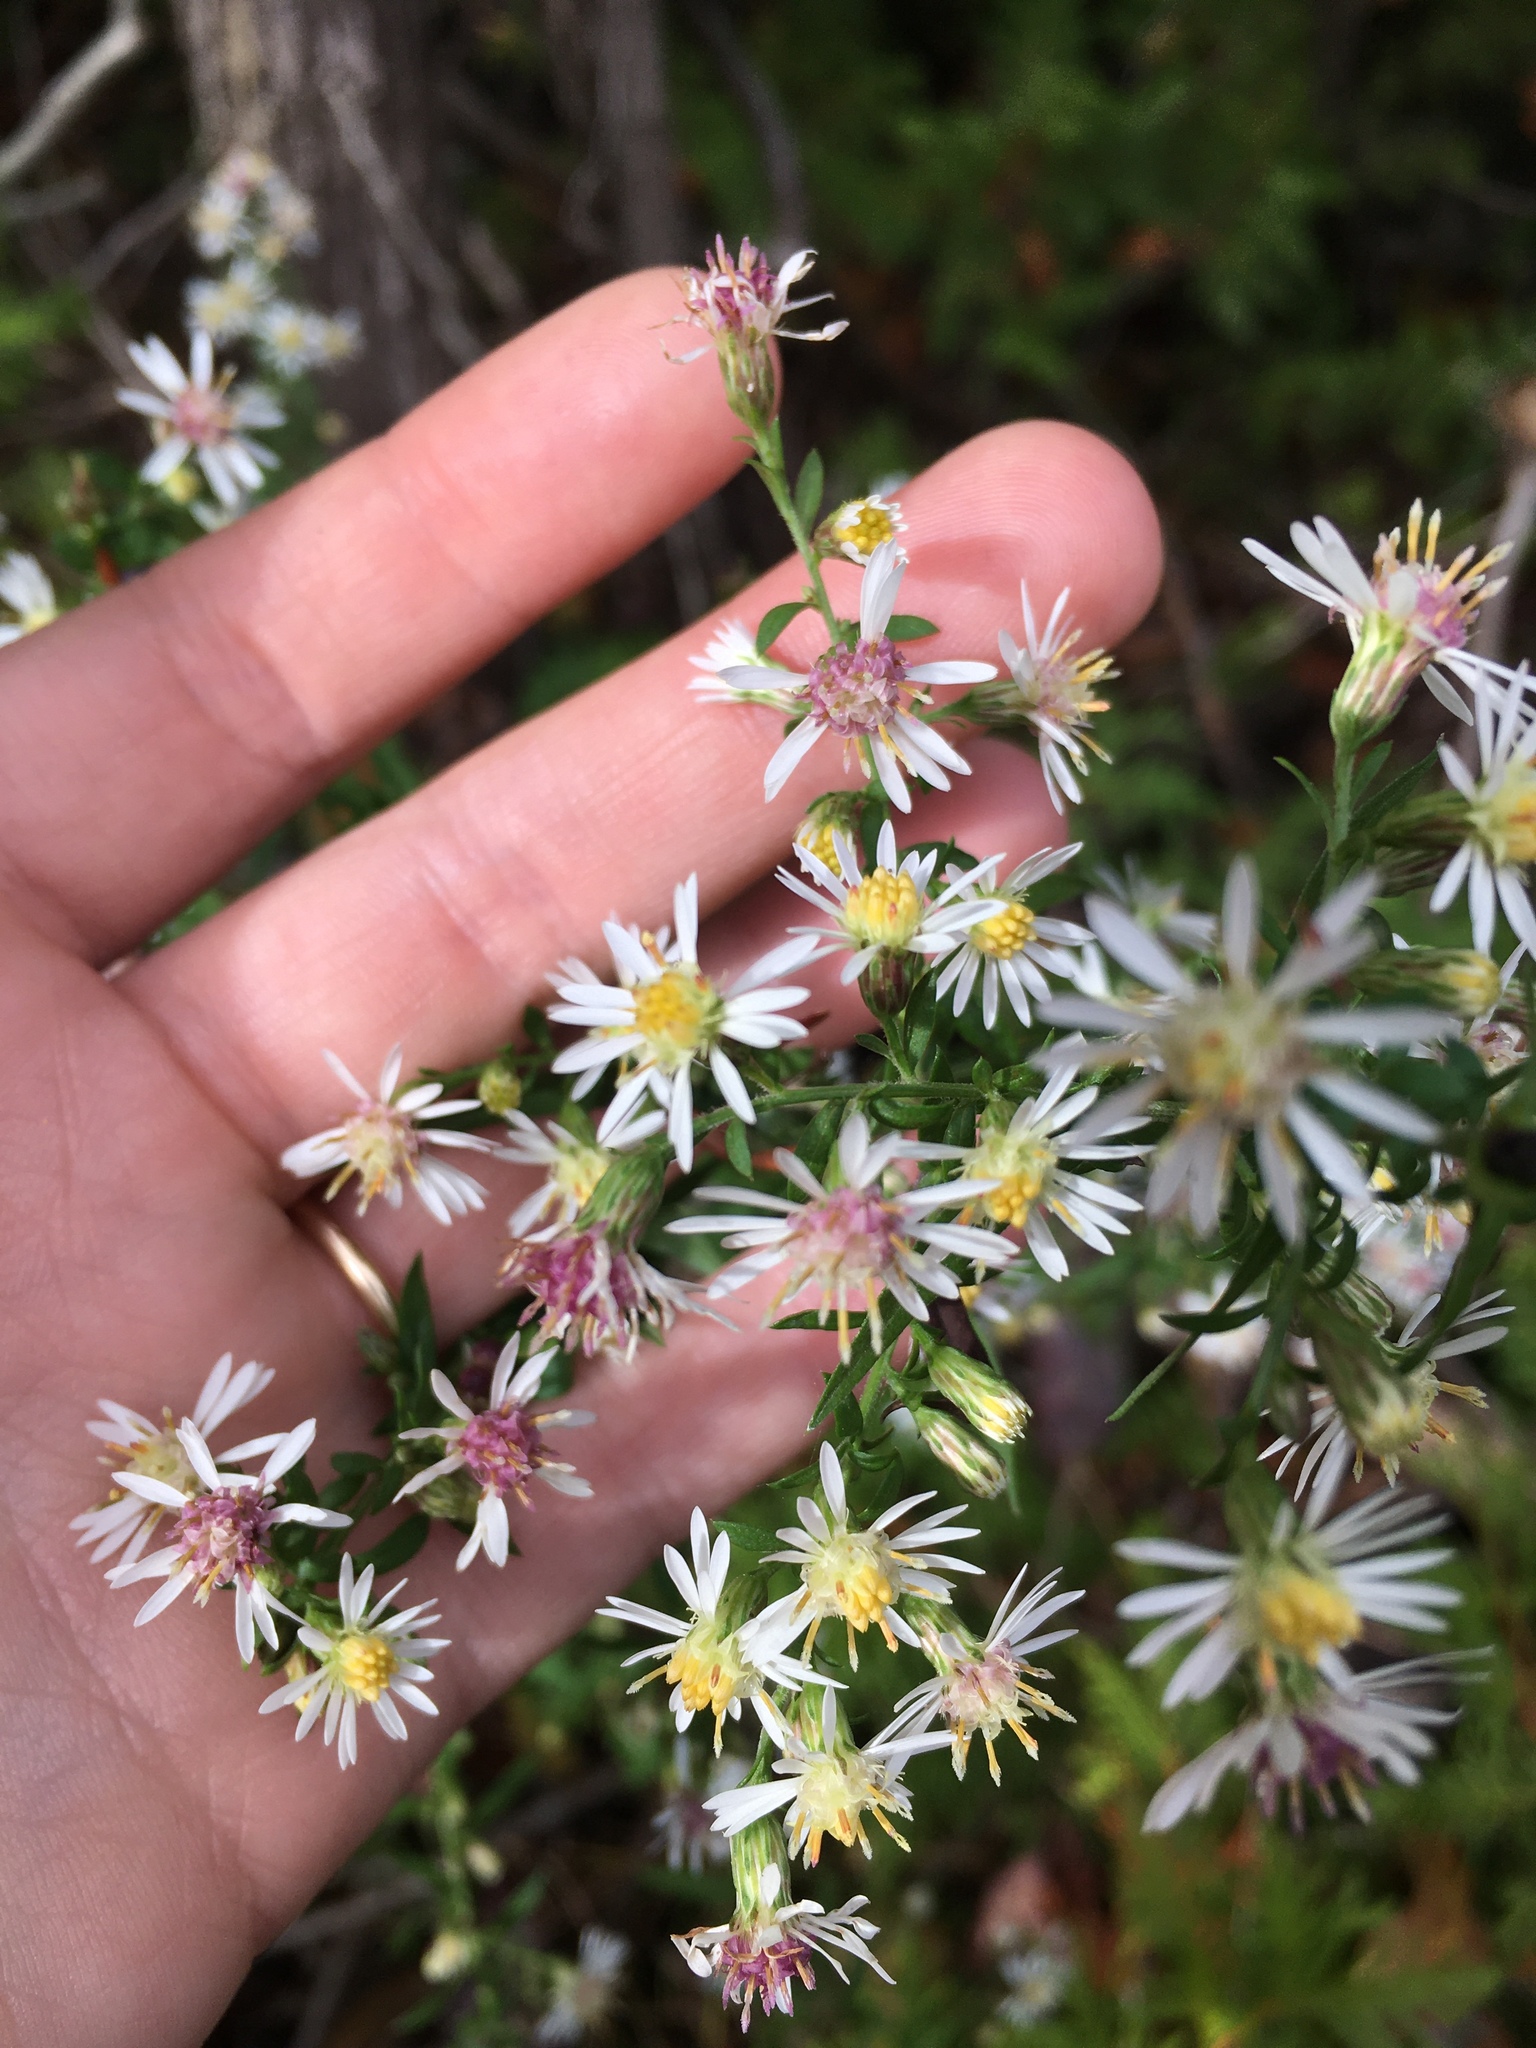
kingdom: Plantae
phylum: Tracheophyta
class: Magnoliopsida
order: Asterales
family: Asteraceae
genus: Symphyotrichum
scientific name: Symphyotrichum lateriflorum
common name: Calico aster
